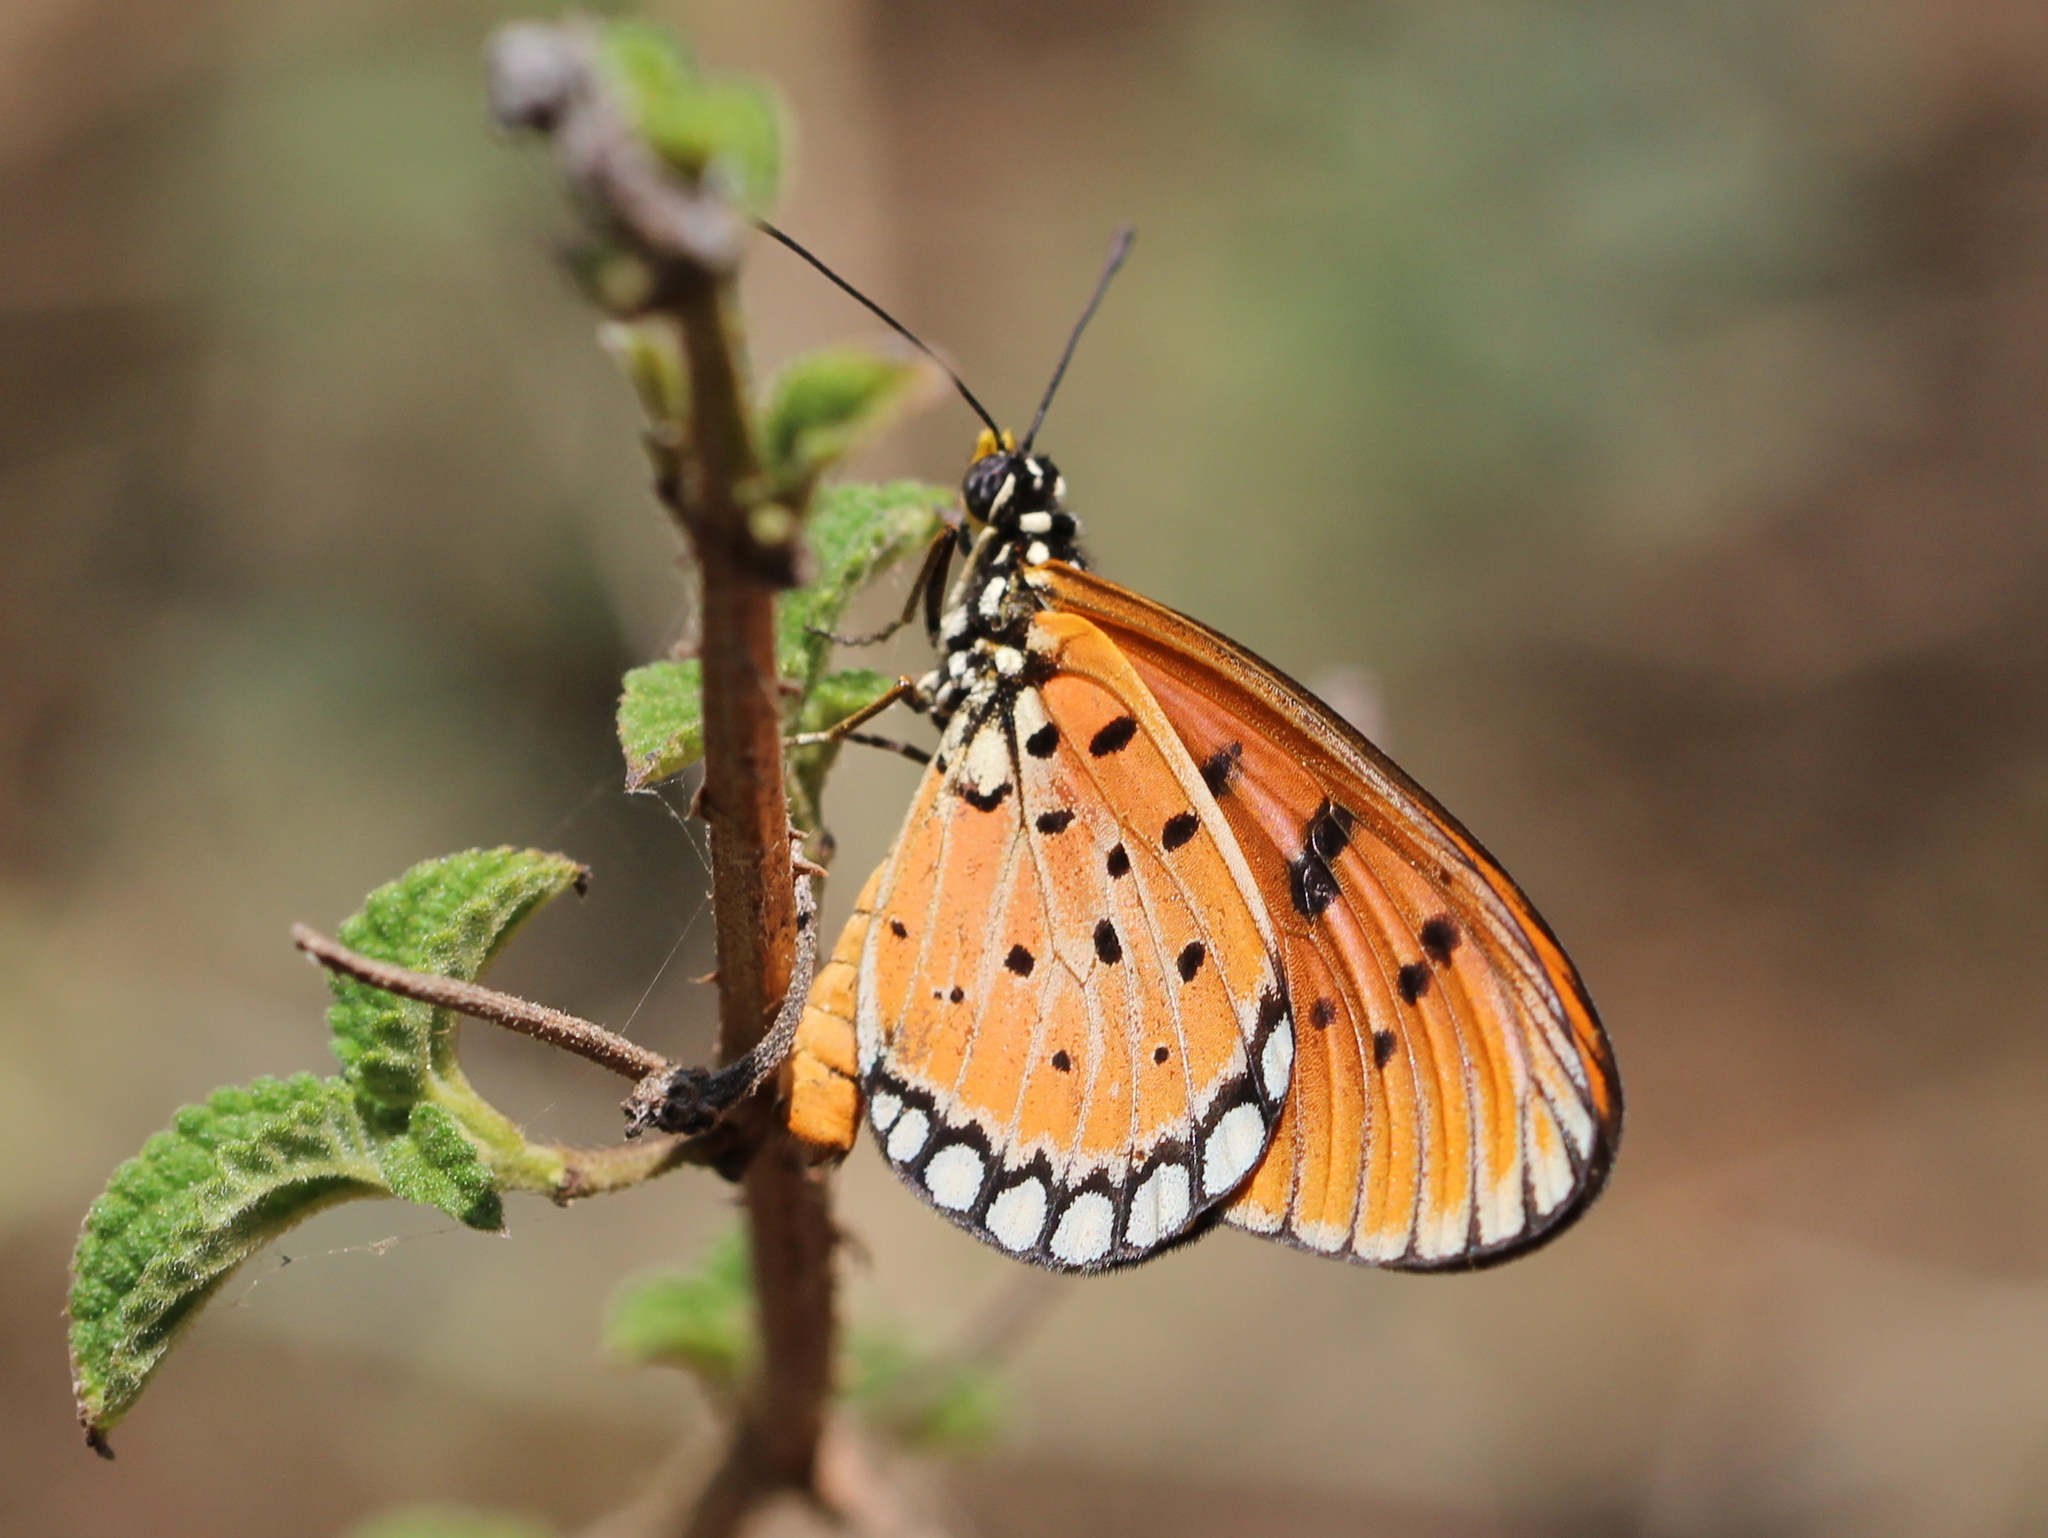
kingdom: Animalia
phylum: Arthropoda
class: Insecta
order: Lepidoptera
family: Nymphalidae
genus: Acraea
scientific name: Acraea terpsicore
